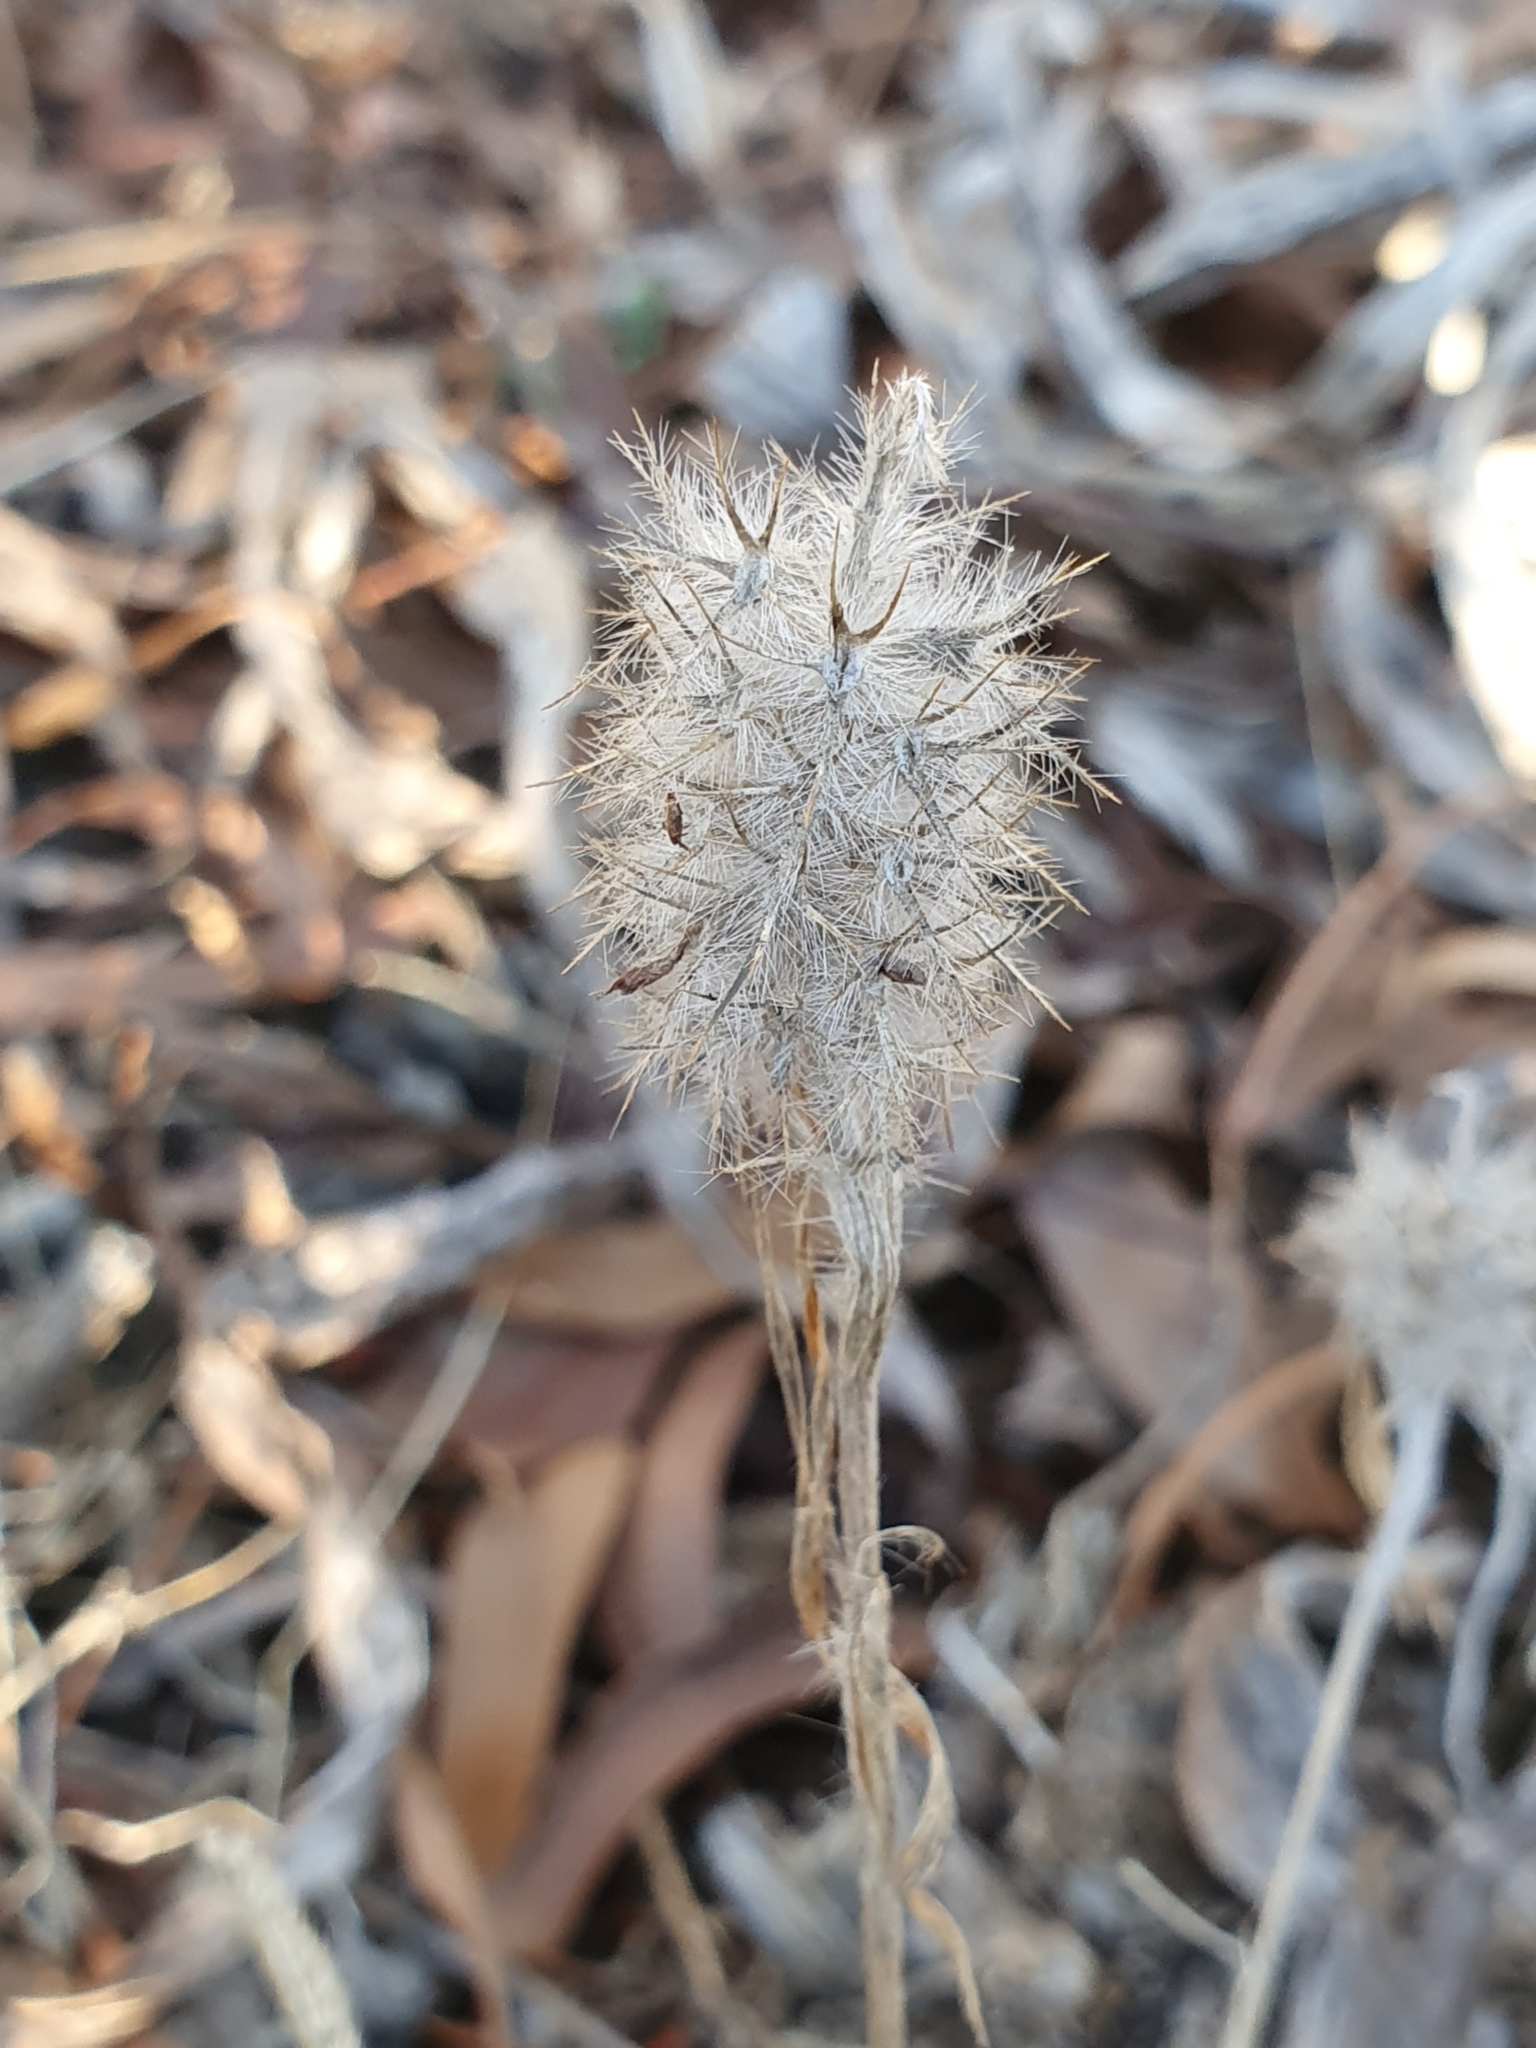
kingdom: Plantae
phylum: Tracheophyta
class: Magnoliopsida
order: Fabales
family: Fabaceae
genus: Trifolium
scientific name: Trifolium angustifolium
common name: Narrow clover
